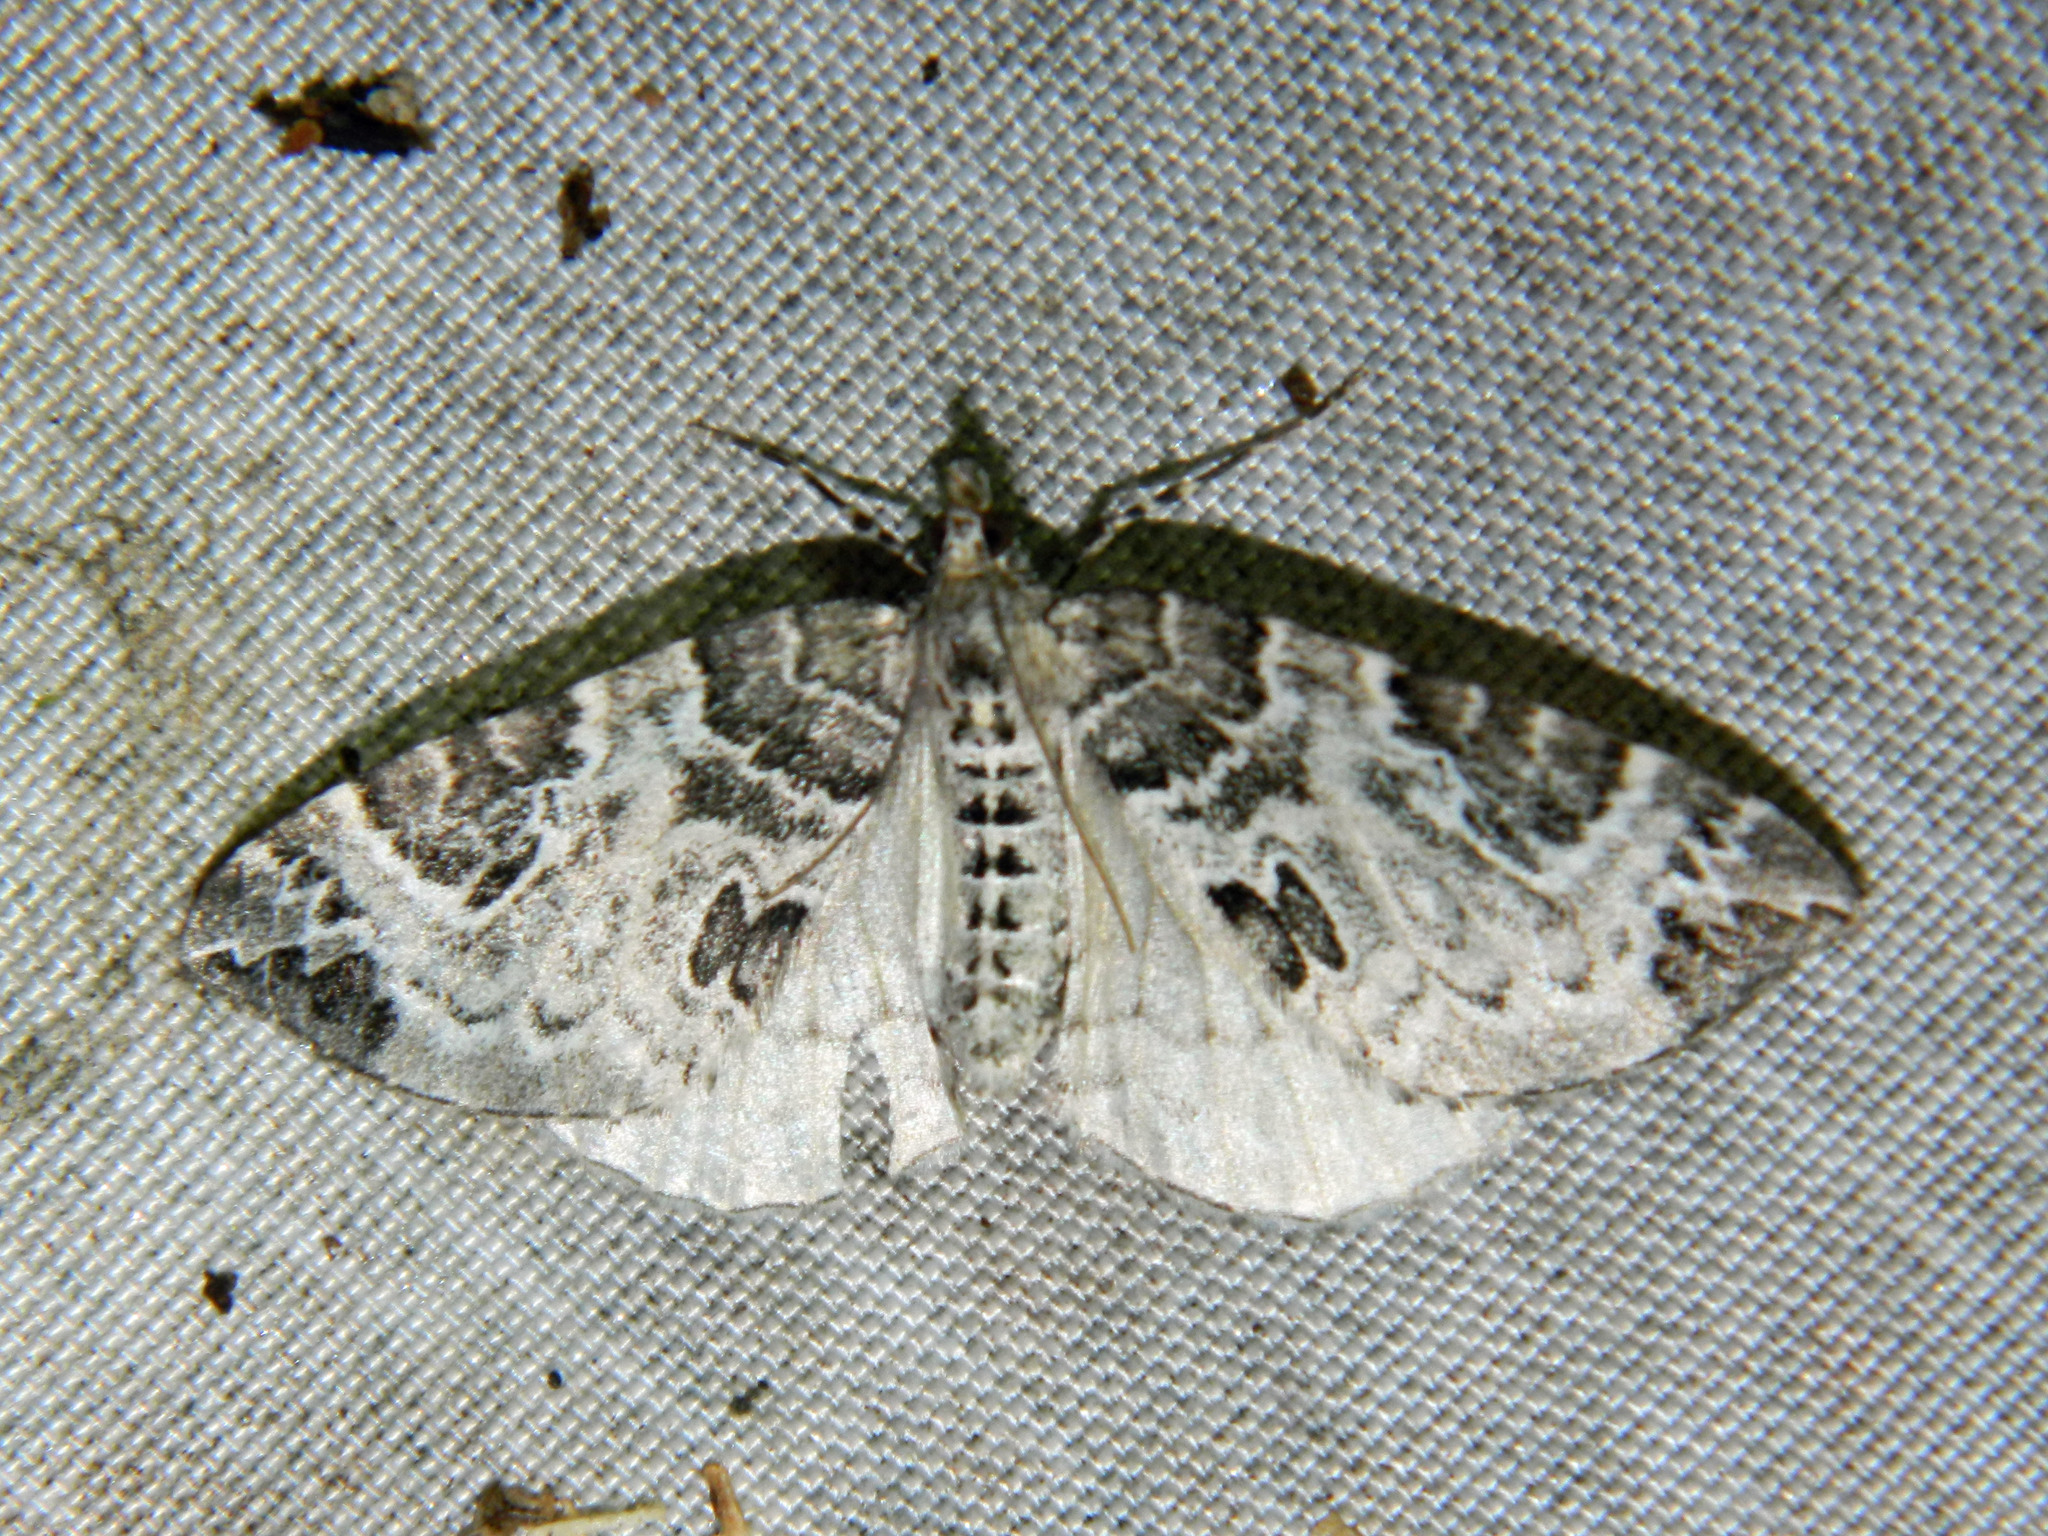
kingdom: Animalia
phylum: Arthropoda
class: Insecta
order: Lepidoptera
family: Geometridae
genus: Eulithis
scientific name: Eulithis explanata
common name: White eulithis
